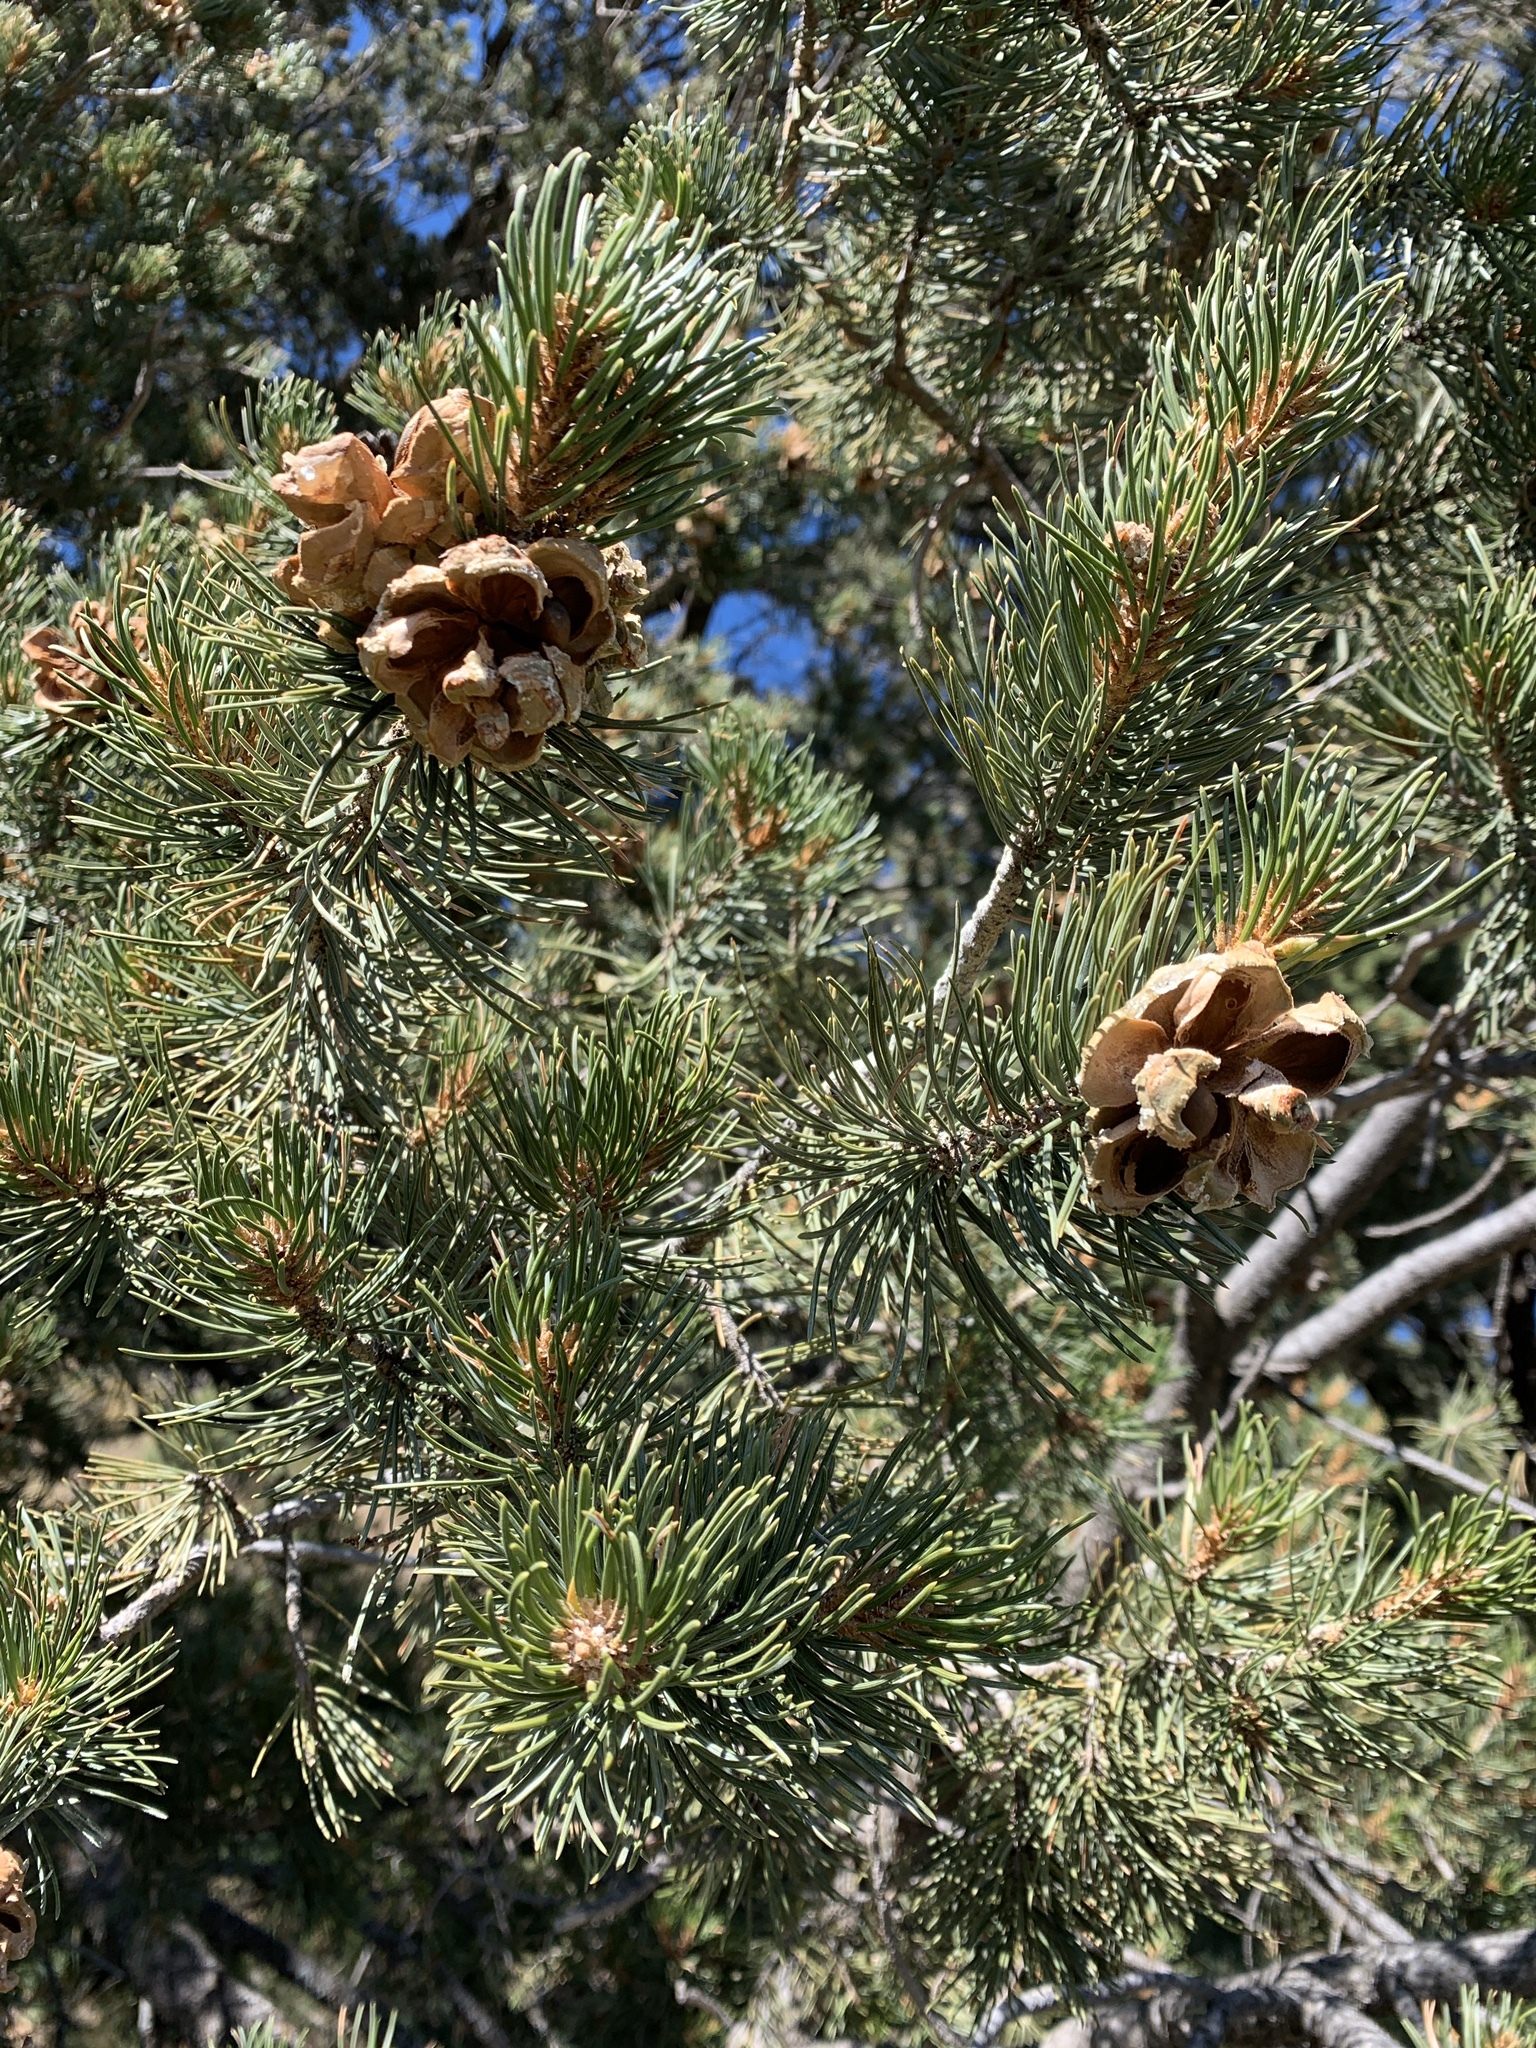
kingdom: Plantae
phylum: Tracheophyta
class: Pinopsida
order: Pinales
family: Pinaceae
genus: Pinus
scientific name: Pinus edulis
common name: Colorado pinyon
